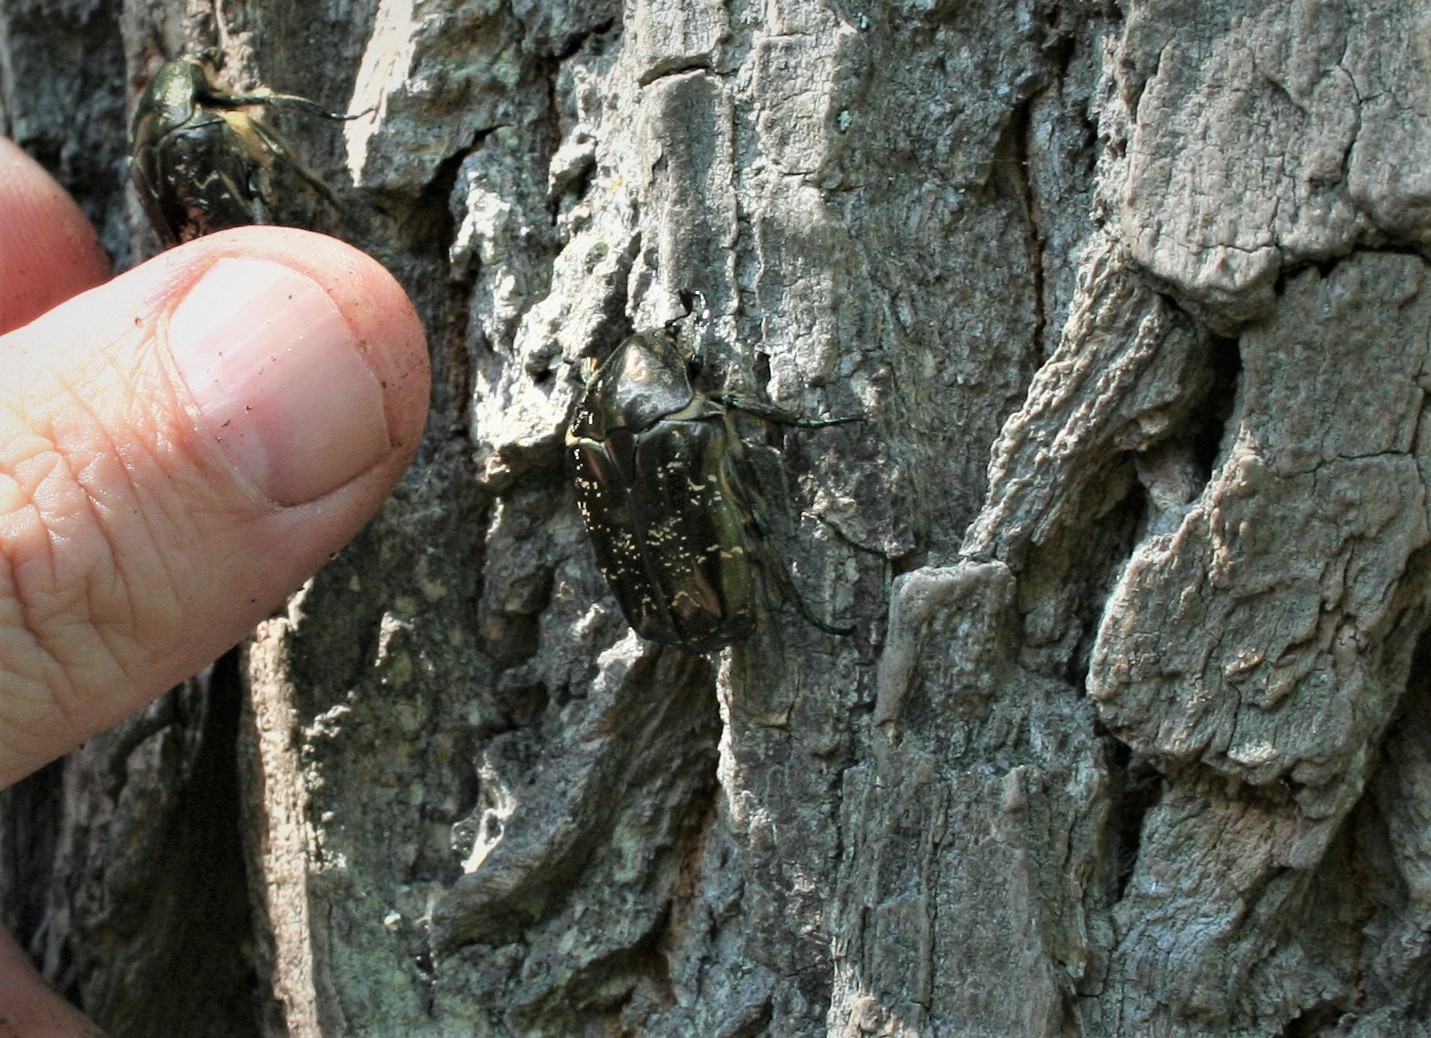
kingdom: Animalia
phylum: Arthropoda
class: Insecta
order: Coleoptera
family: Scarabaeidae
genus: Protaetia
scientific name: Protaetia marmorata
